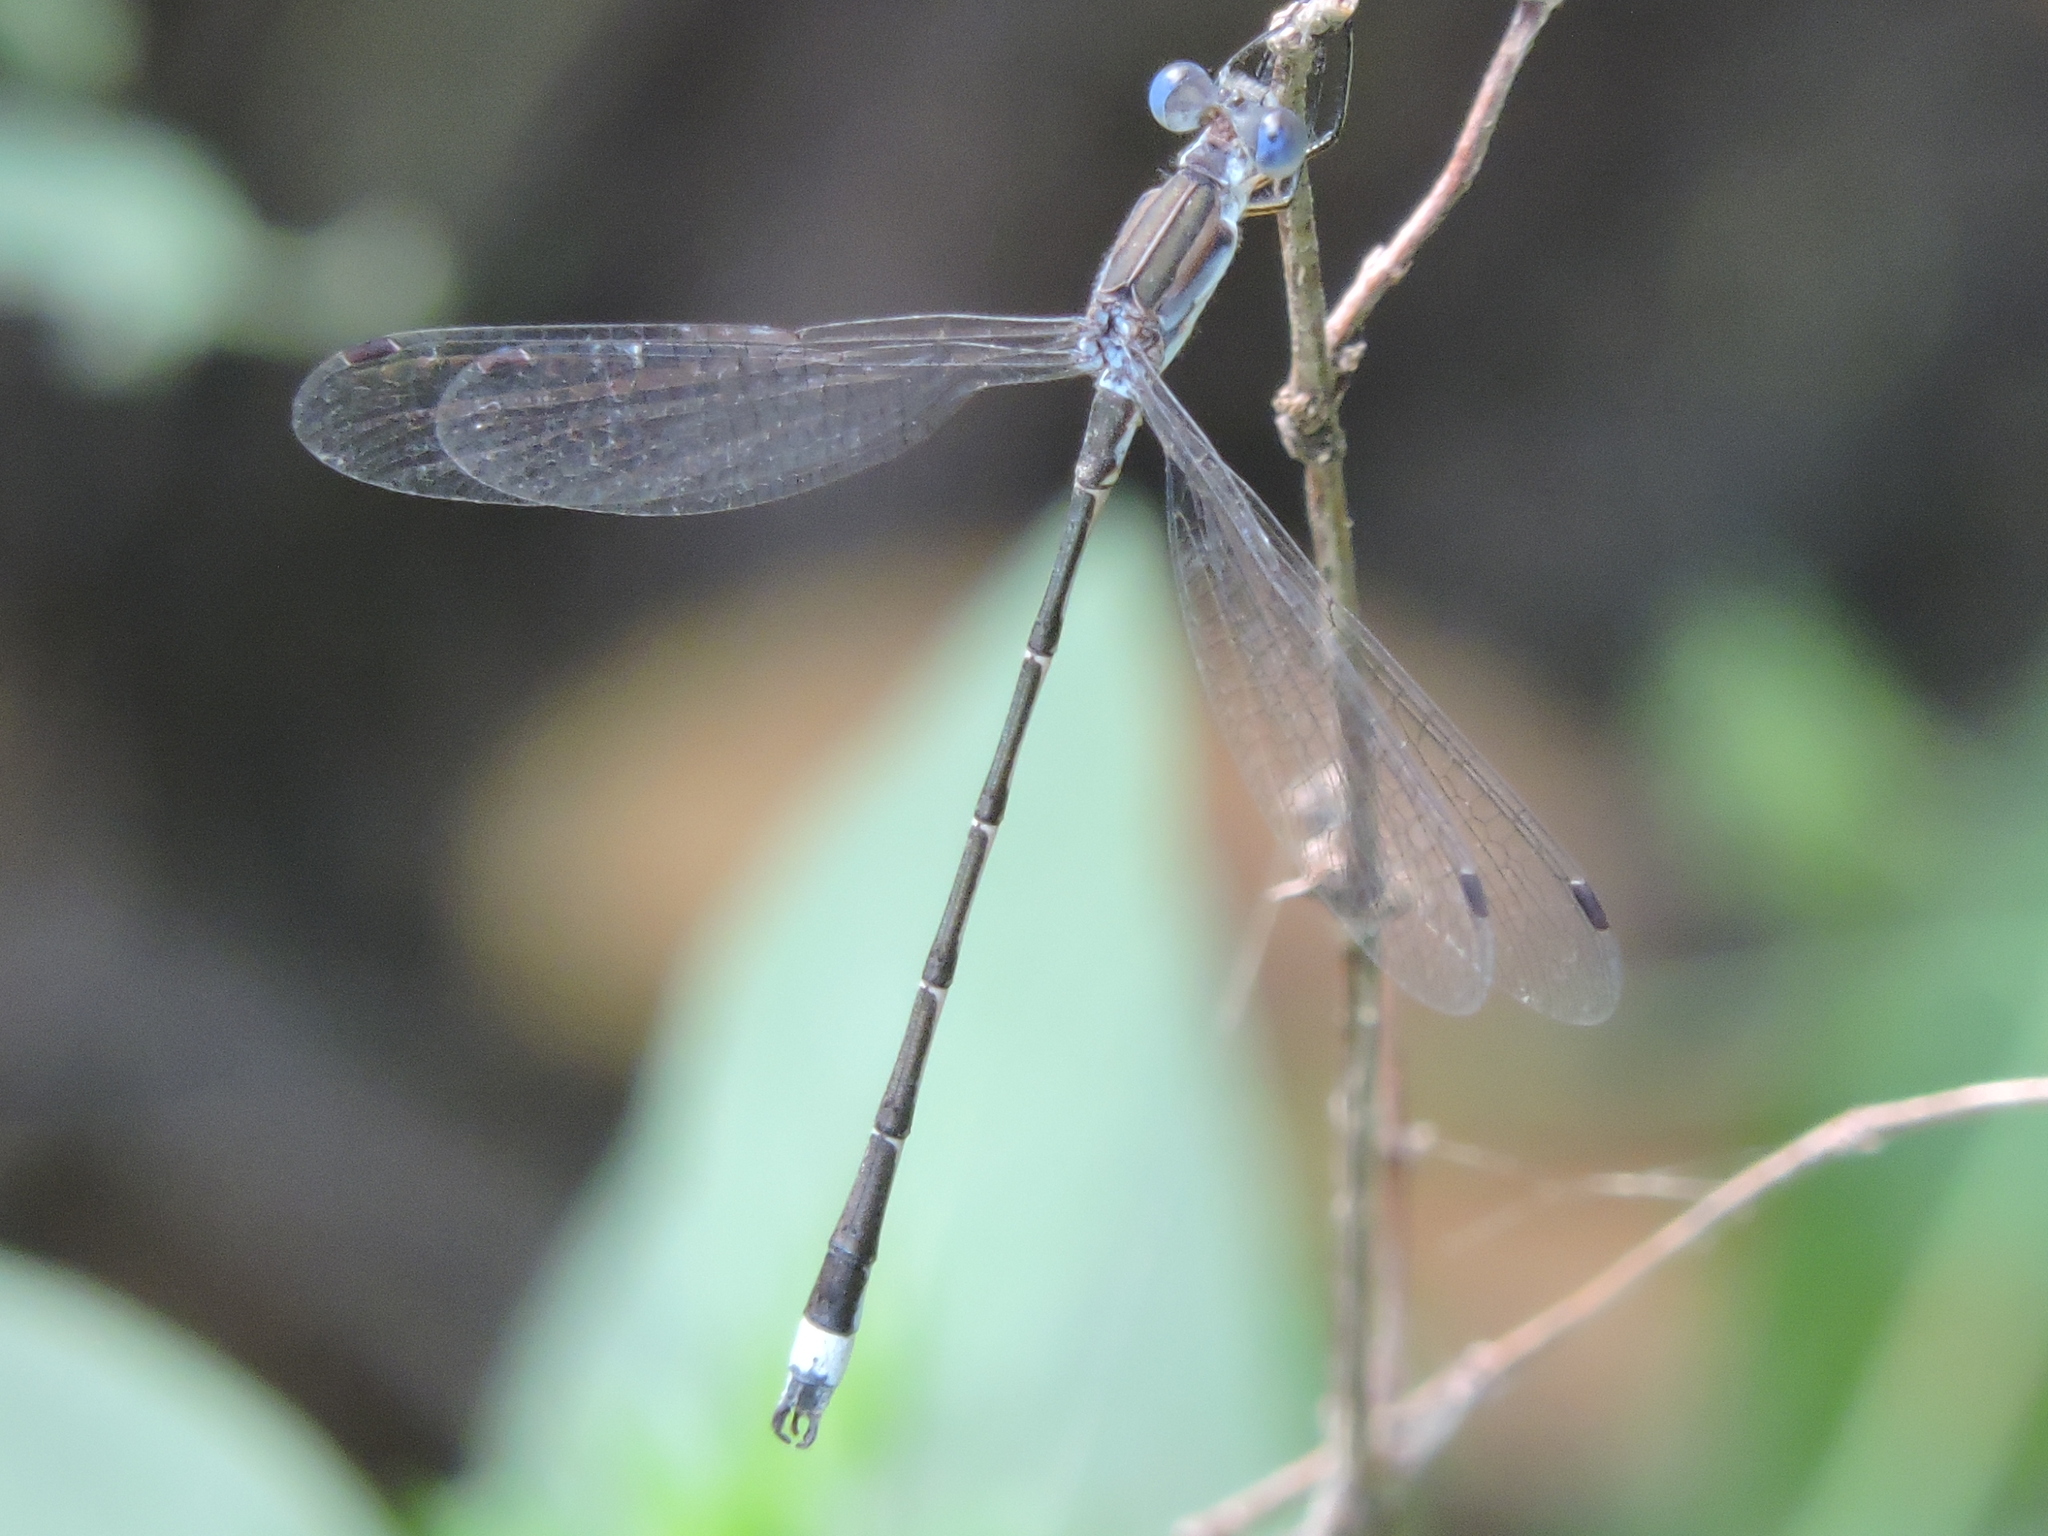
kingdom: Animalia
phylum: Arthropoda
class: Insecta
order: Odonata
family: Lestidae
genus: Lestes
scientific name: Lestes australis
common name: Southern spreadwing
